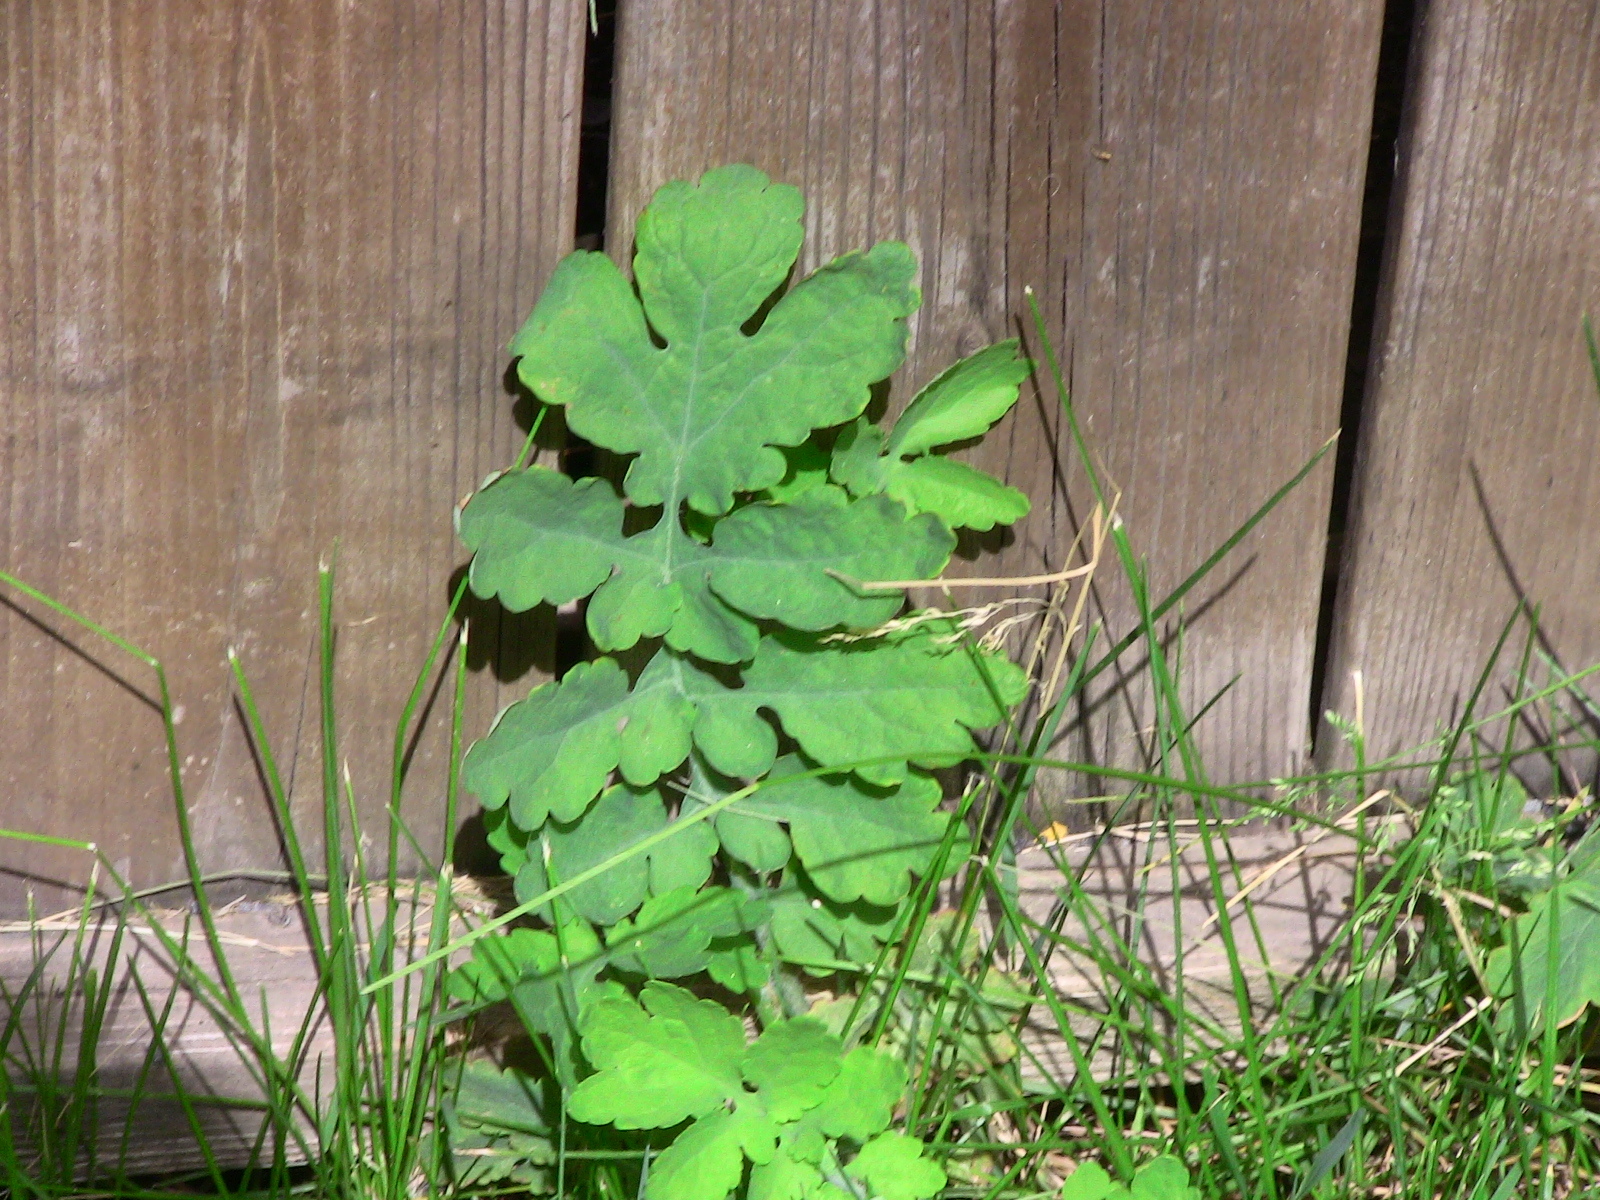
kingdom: Plantae
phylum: Tracheophyta
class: Magnoliopsida
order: Ranunculales
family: Papaveraceae
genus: Chelidonium
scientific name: Chelidonium majus
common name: Greater celandine
